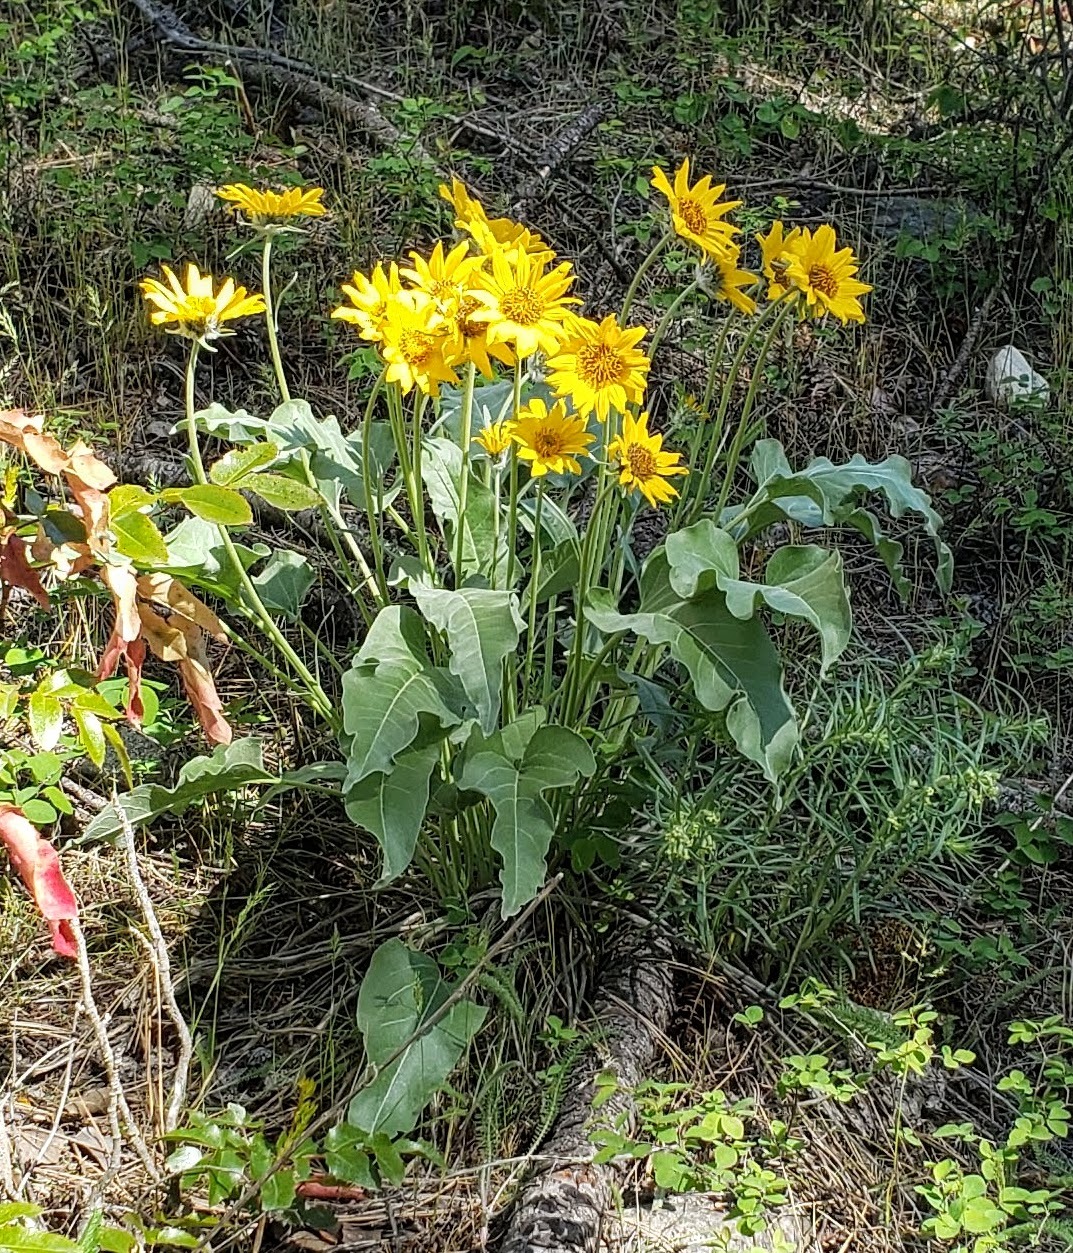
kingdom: Plantae
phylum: Tracheophyta
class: Magnoliopsida
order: Asterales
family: Asteraceae
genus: Wyethia
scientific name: Wyethia sagittata
